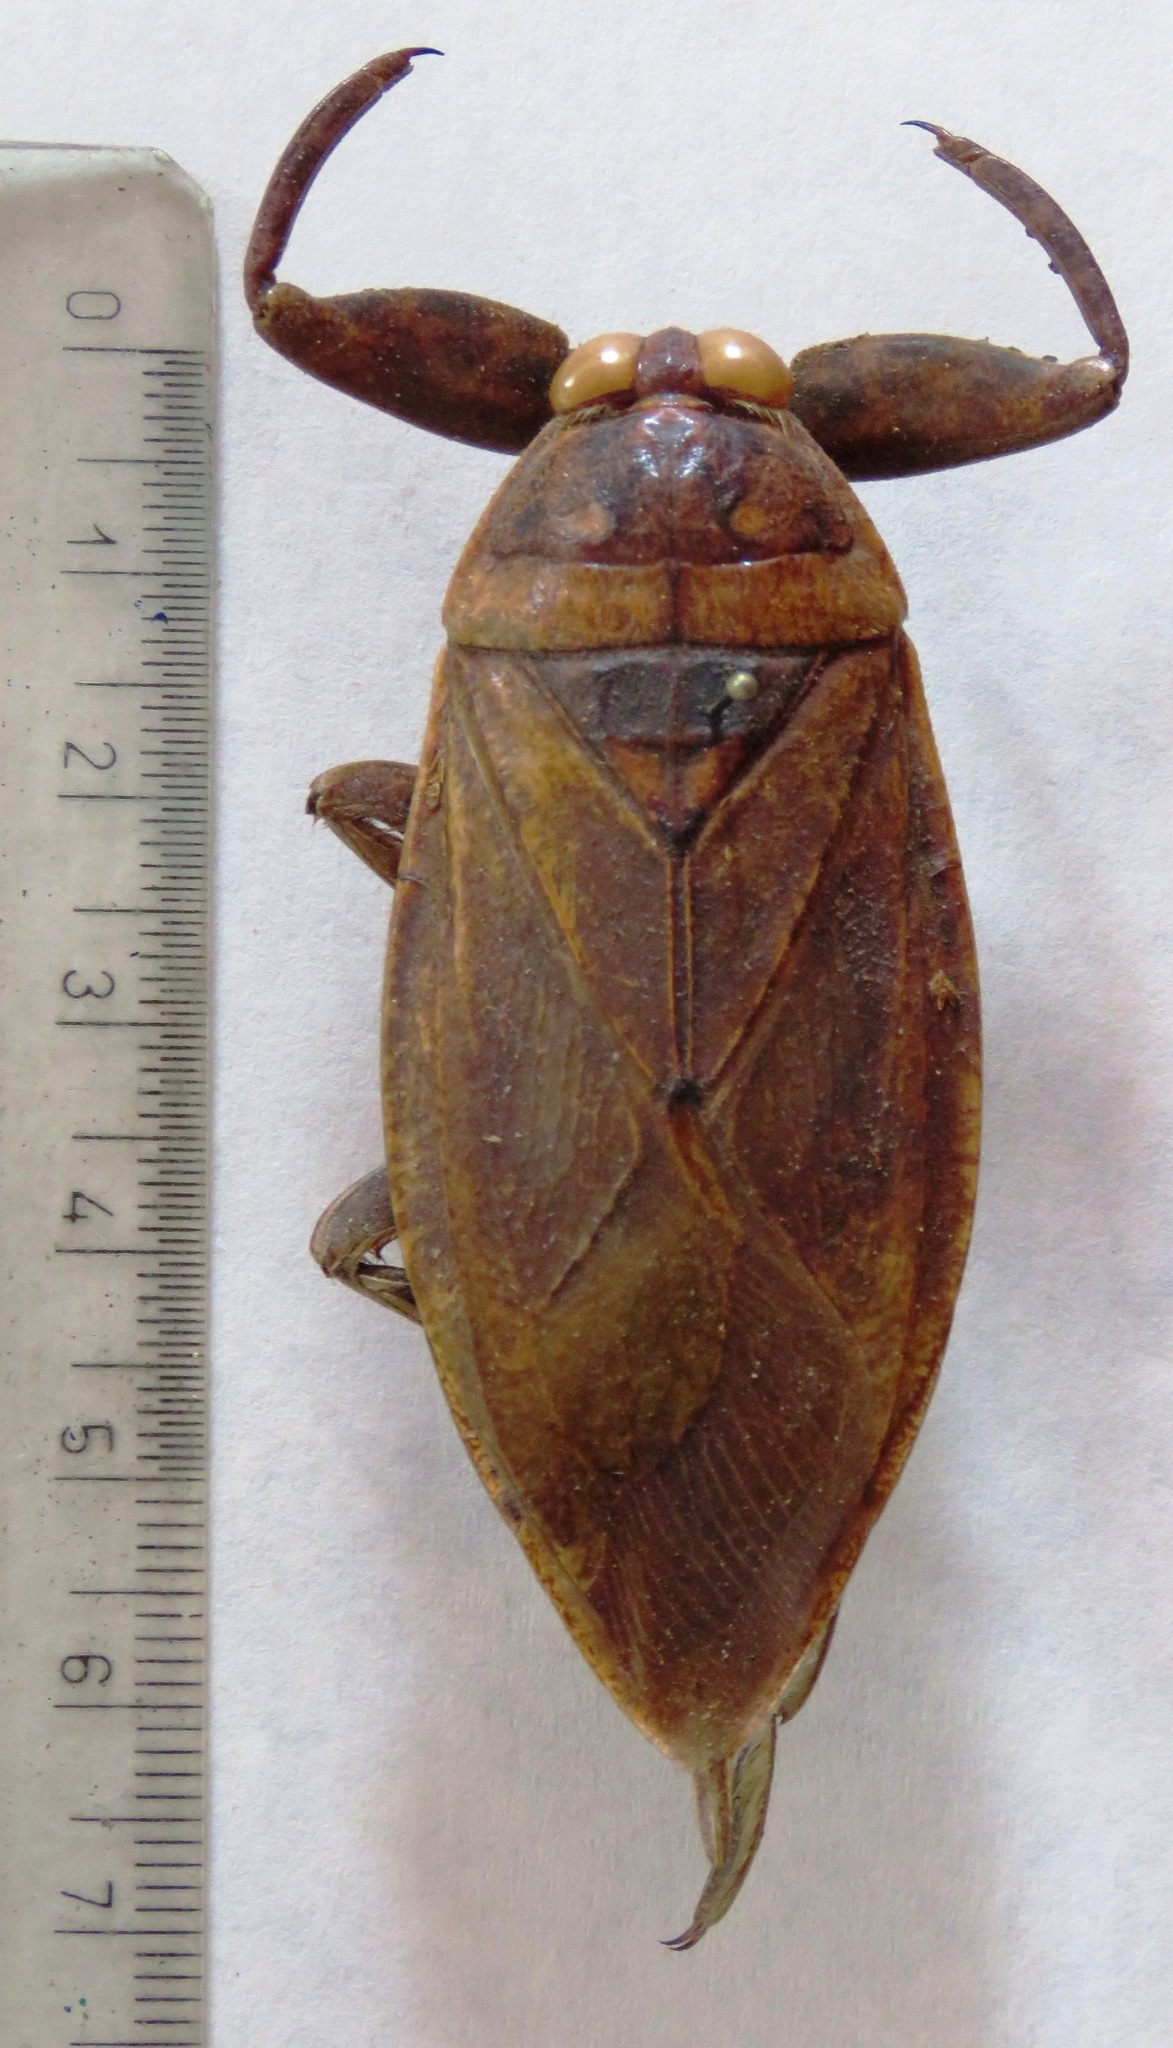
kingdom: Animalia
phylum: Arthropoda
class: Insecta
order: Hemiptera
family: Belostomatidae
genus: Lethocerus
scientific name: Lethocerus
